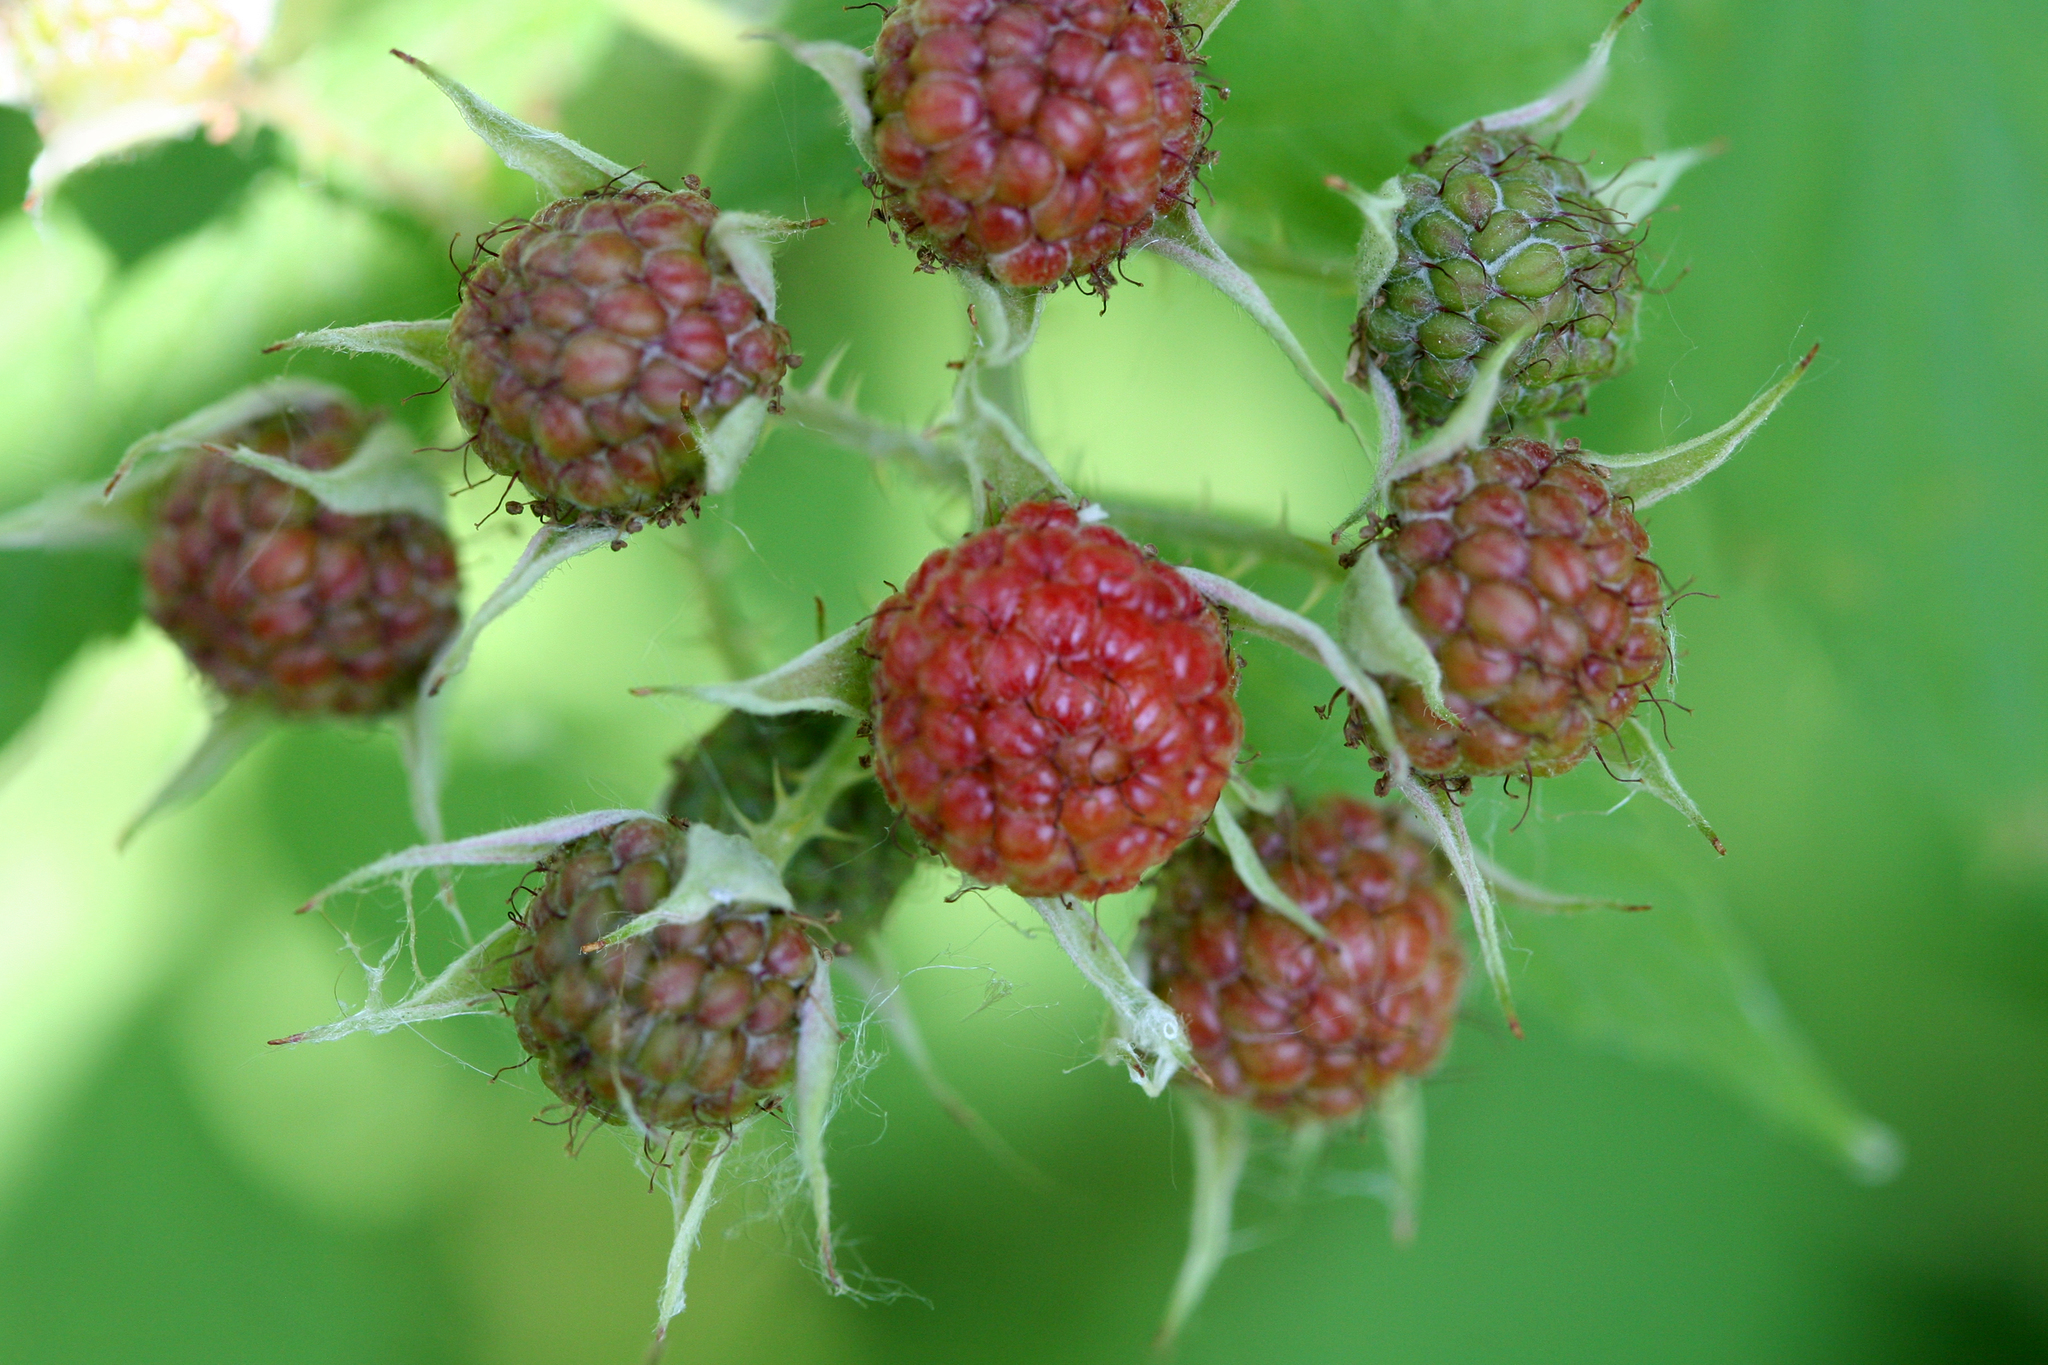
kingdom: Plantae
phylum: Tracheophyta
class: Magnoliopsida
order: Rosales
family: Rosaceae
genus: Rubus
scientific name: Rubus occidentalis
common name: Black raspberry
